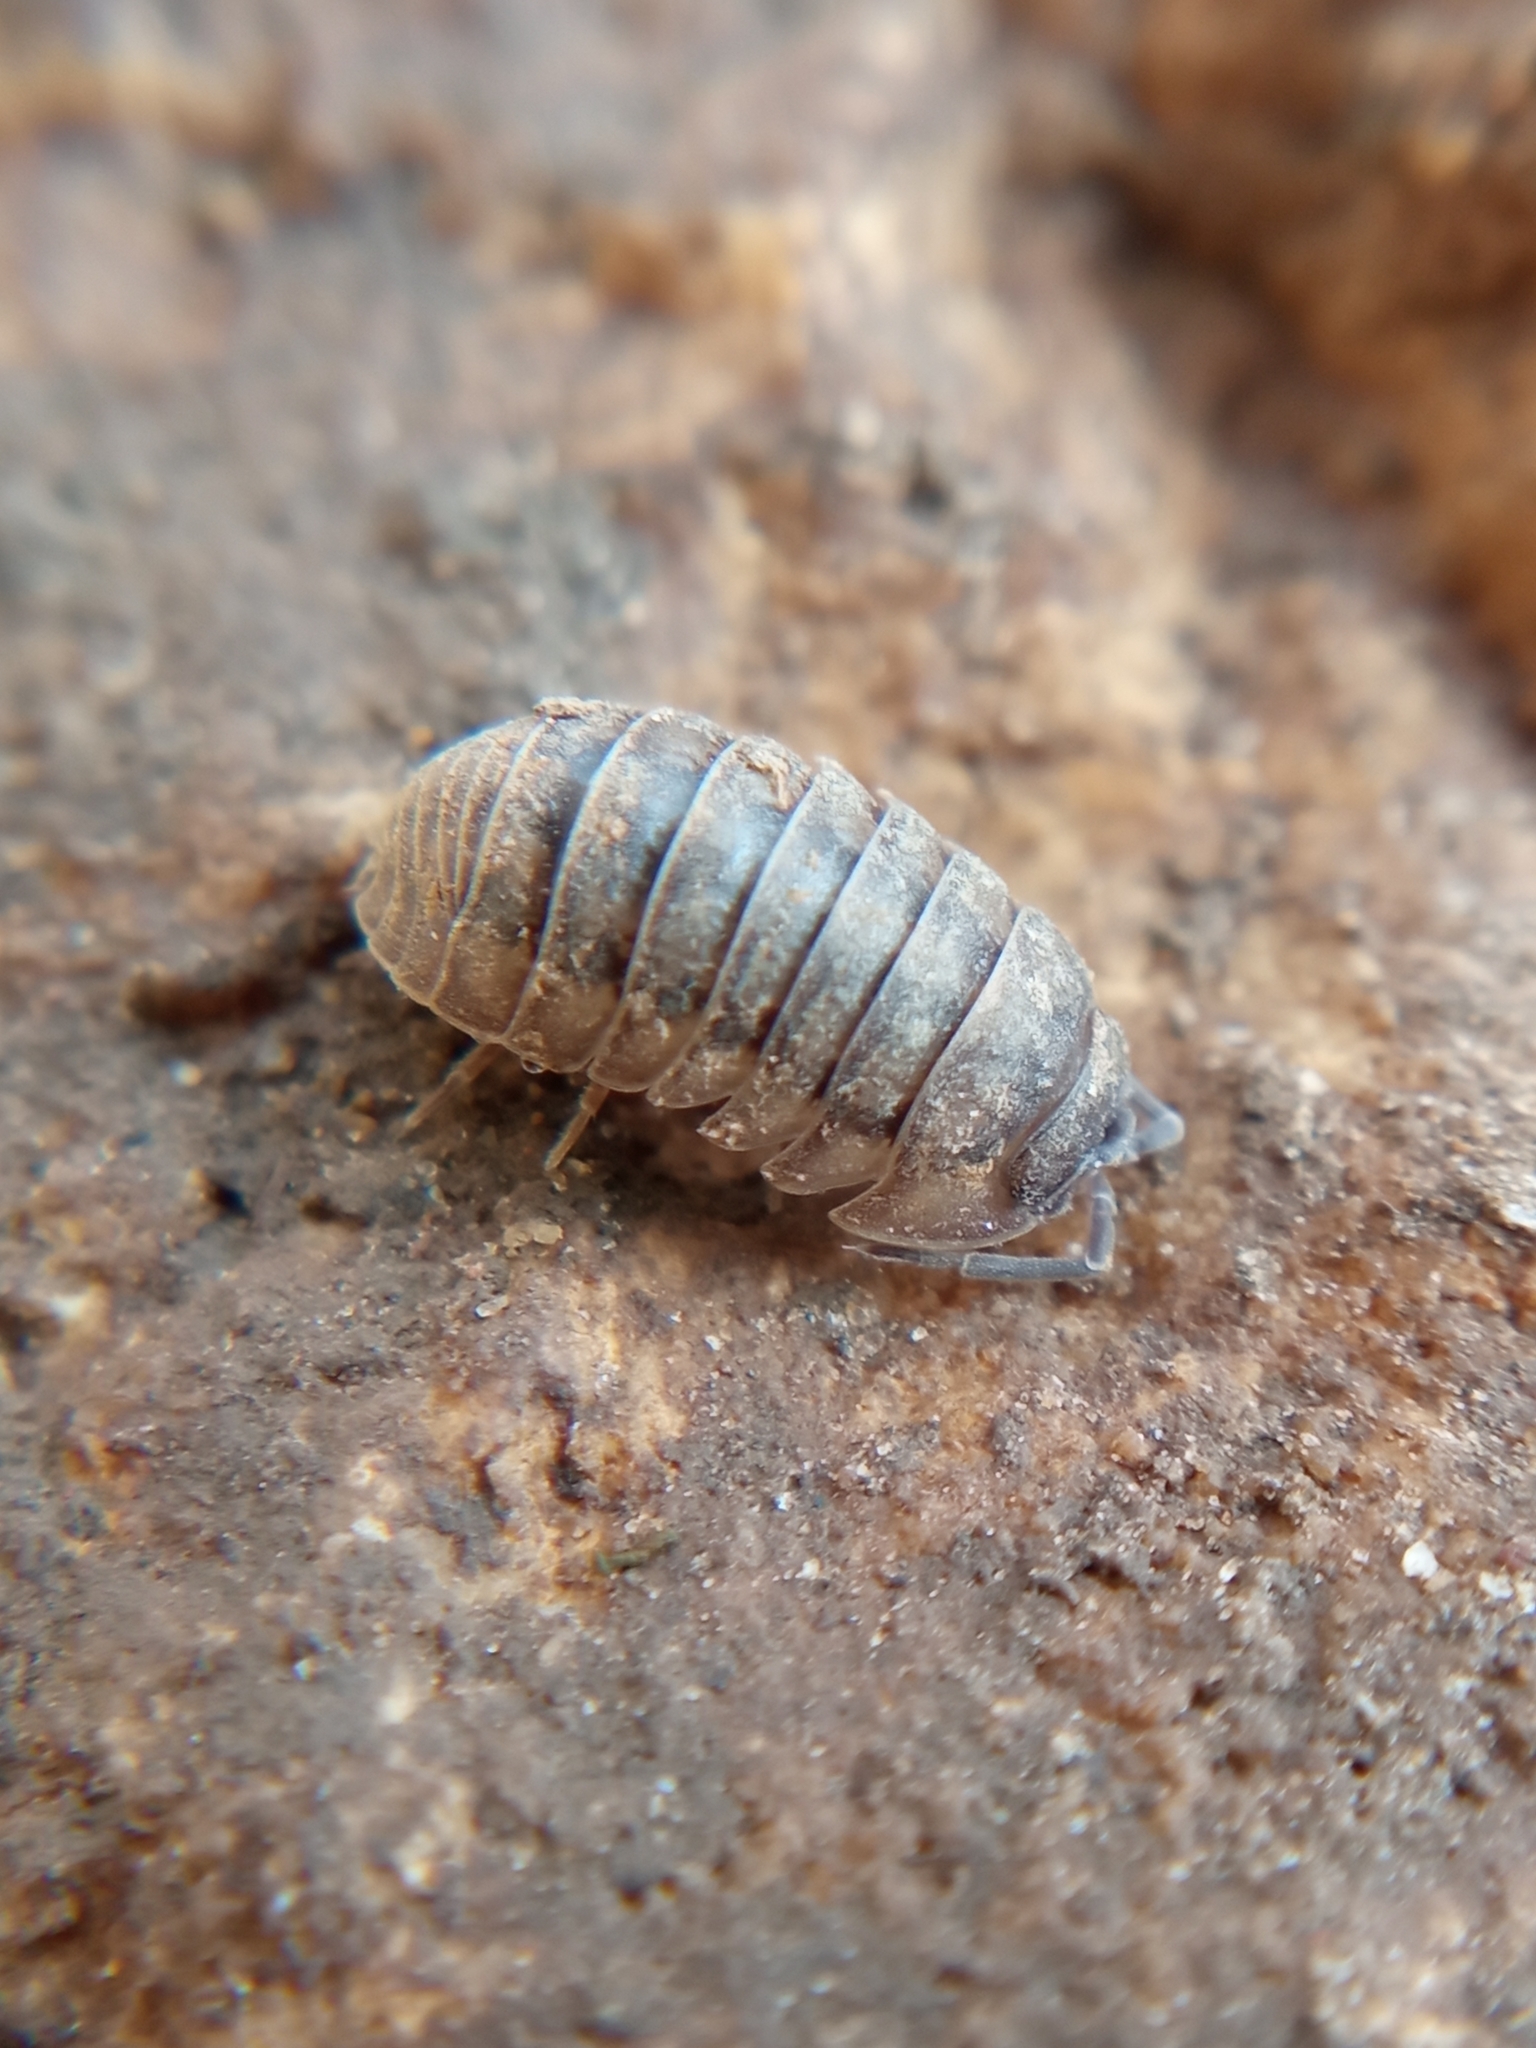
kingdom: Animalia
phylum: Arthropoda
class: Malacostraca
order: Isopoda
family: Armadillidiidae
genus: Armadillidium
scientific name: Armadillidium nasatum
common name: Isopod
